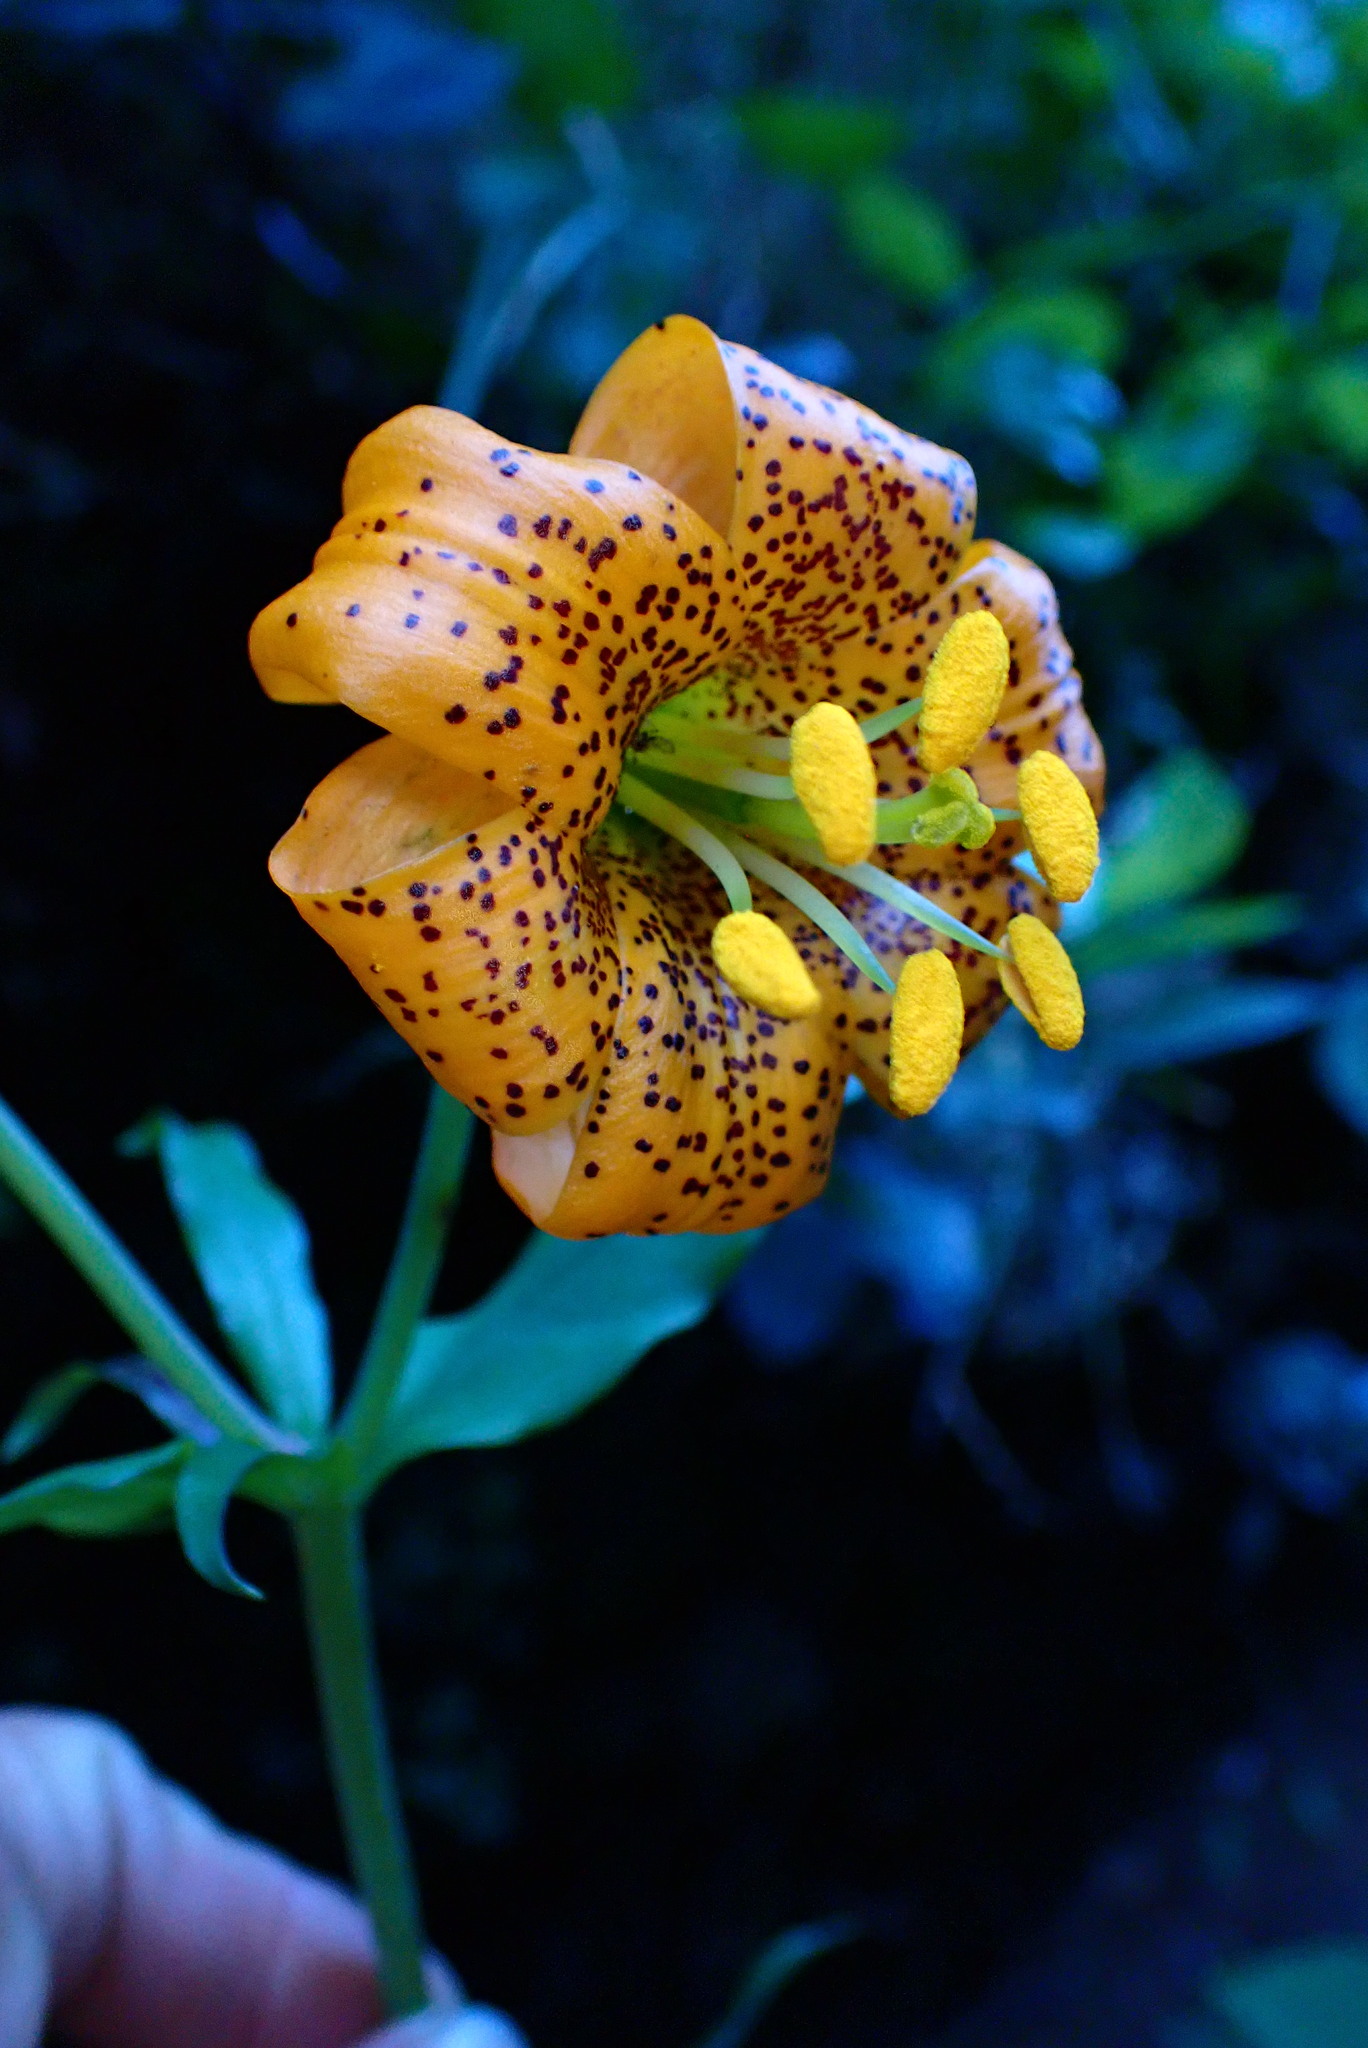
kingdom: Plantae
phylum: Tracheophyta
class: Liliopsida
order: Liliales
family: Liliaceae
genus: Lilium
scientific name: Lilium columbianum
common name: Columbia lily
